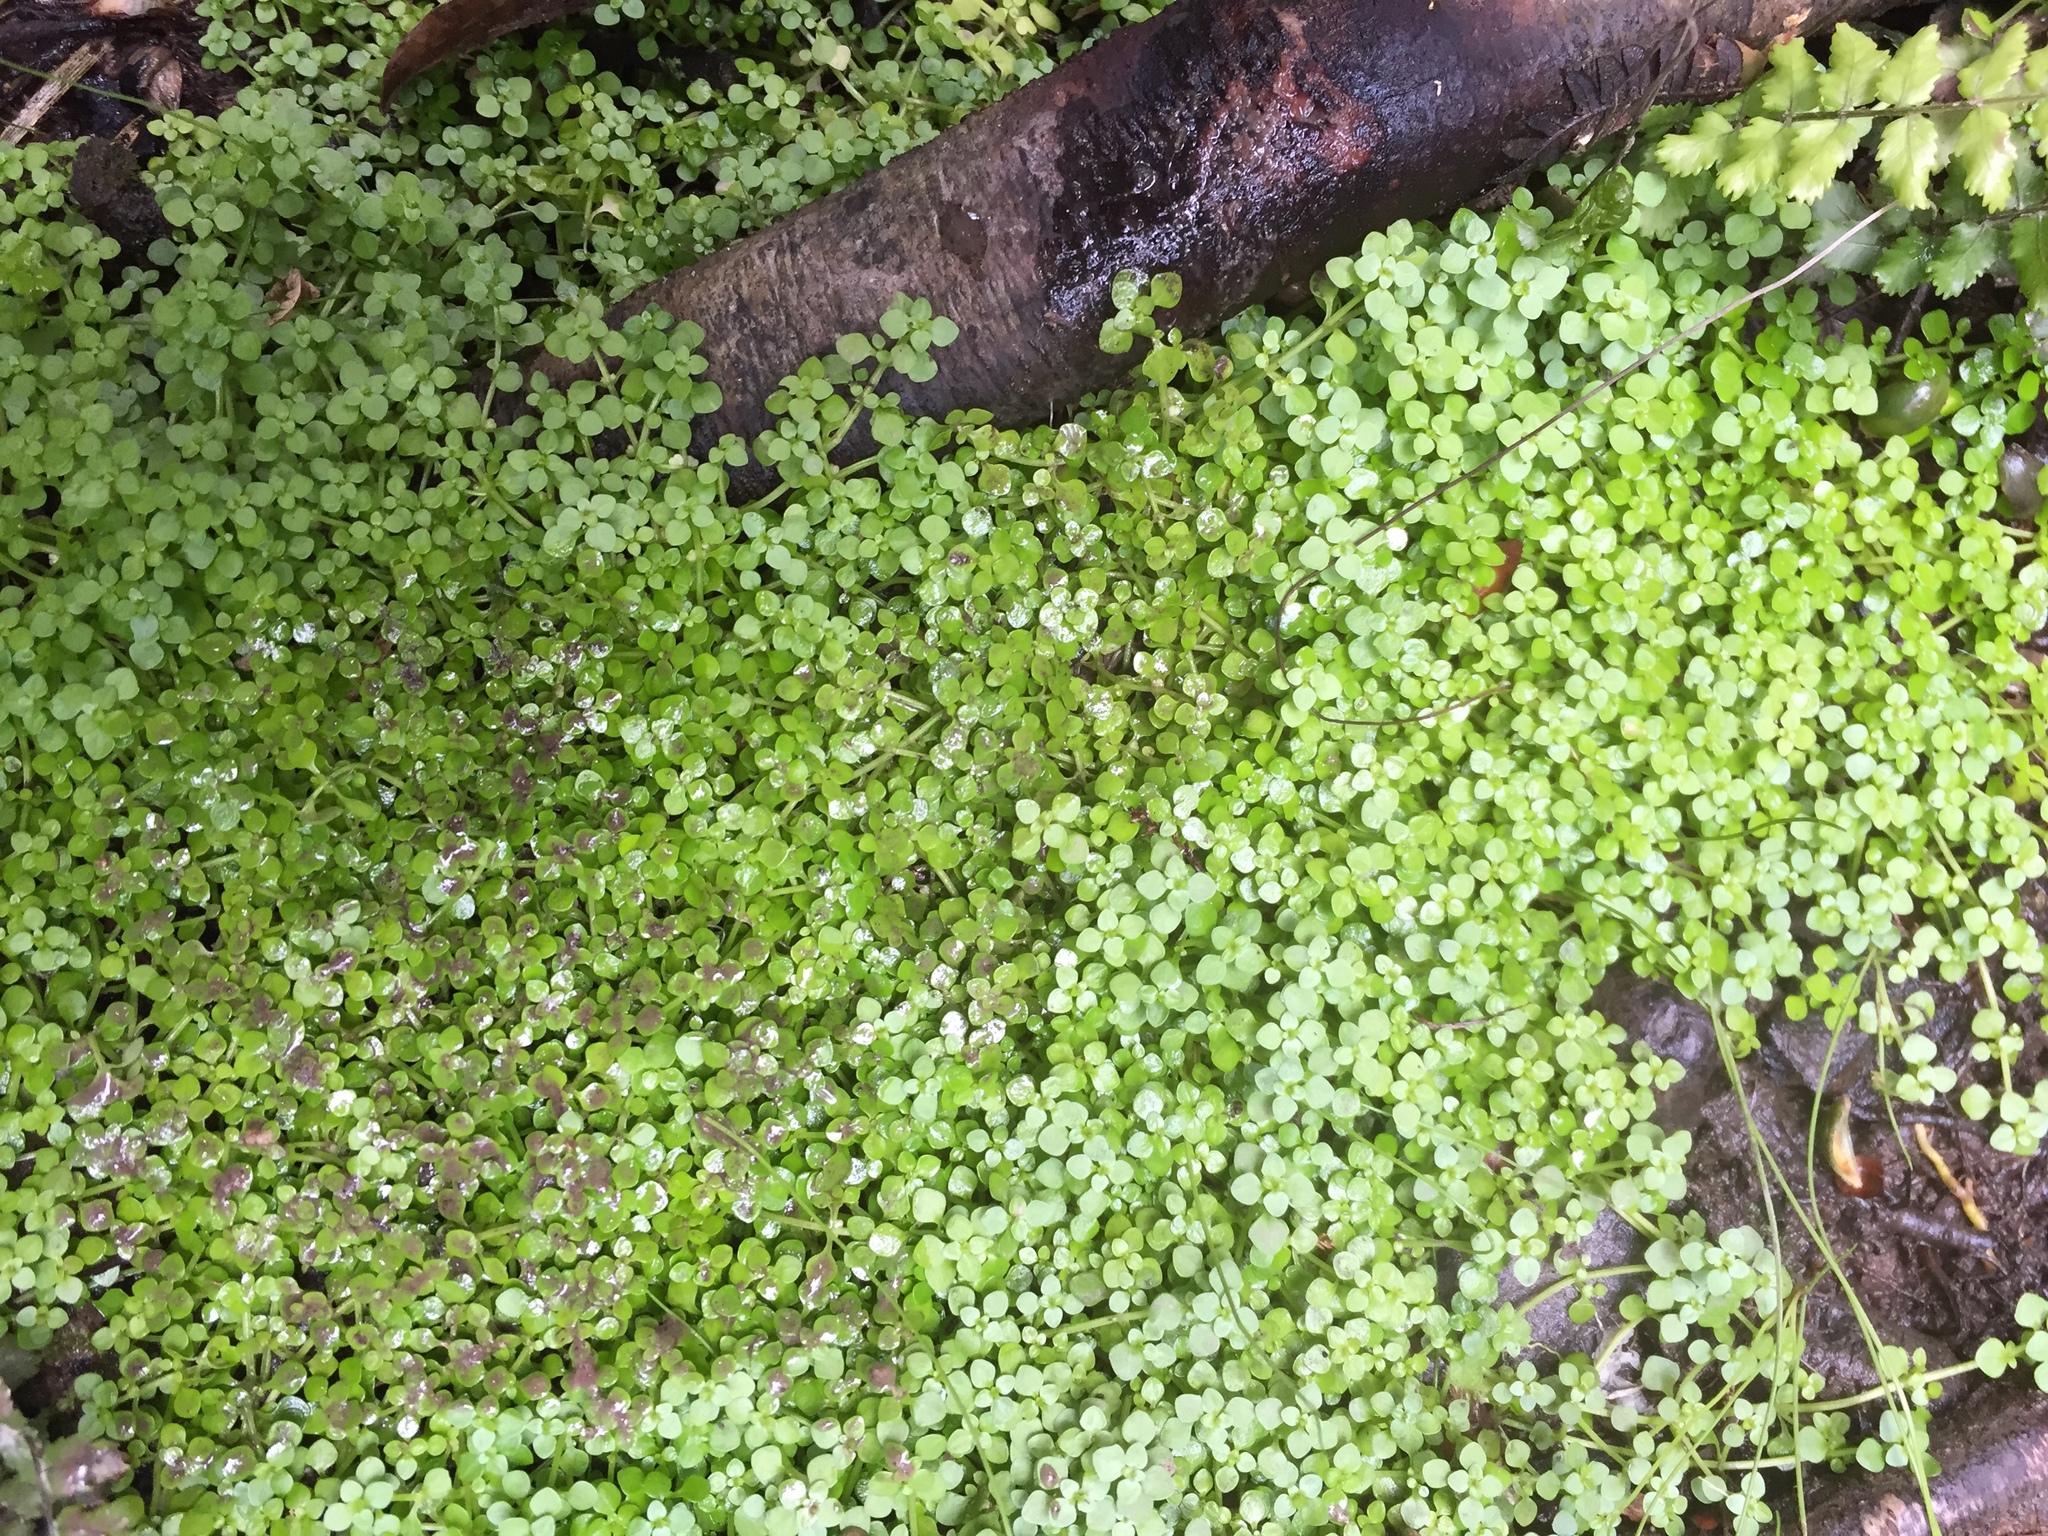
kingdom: Plantae
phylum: Tracheophyta
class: Magnoliopsida
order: Lamiales
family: Plantaginaceae
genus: Callitriche
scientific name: Callitriche muelleri
